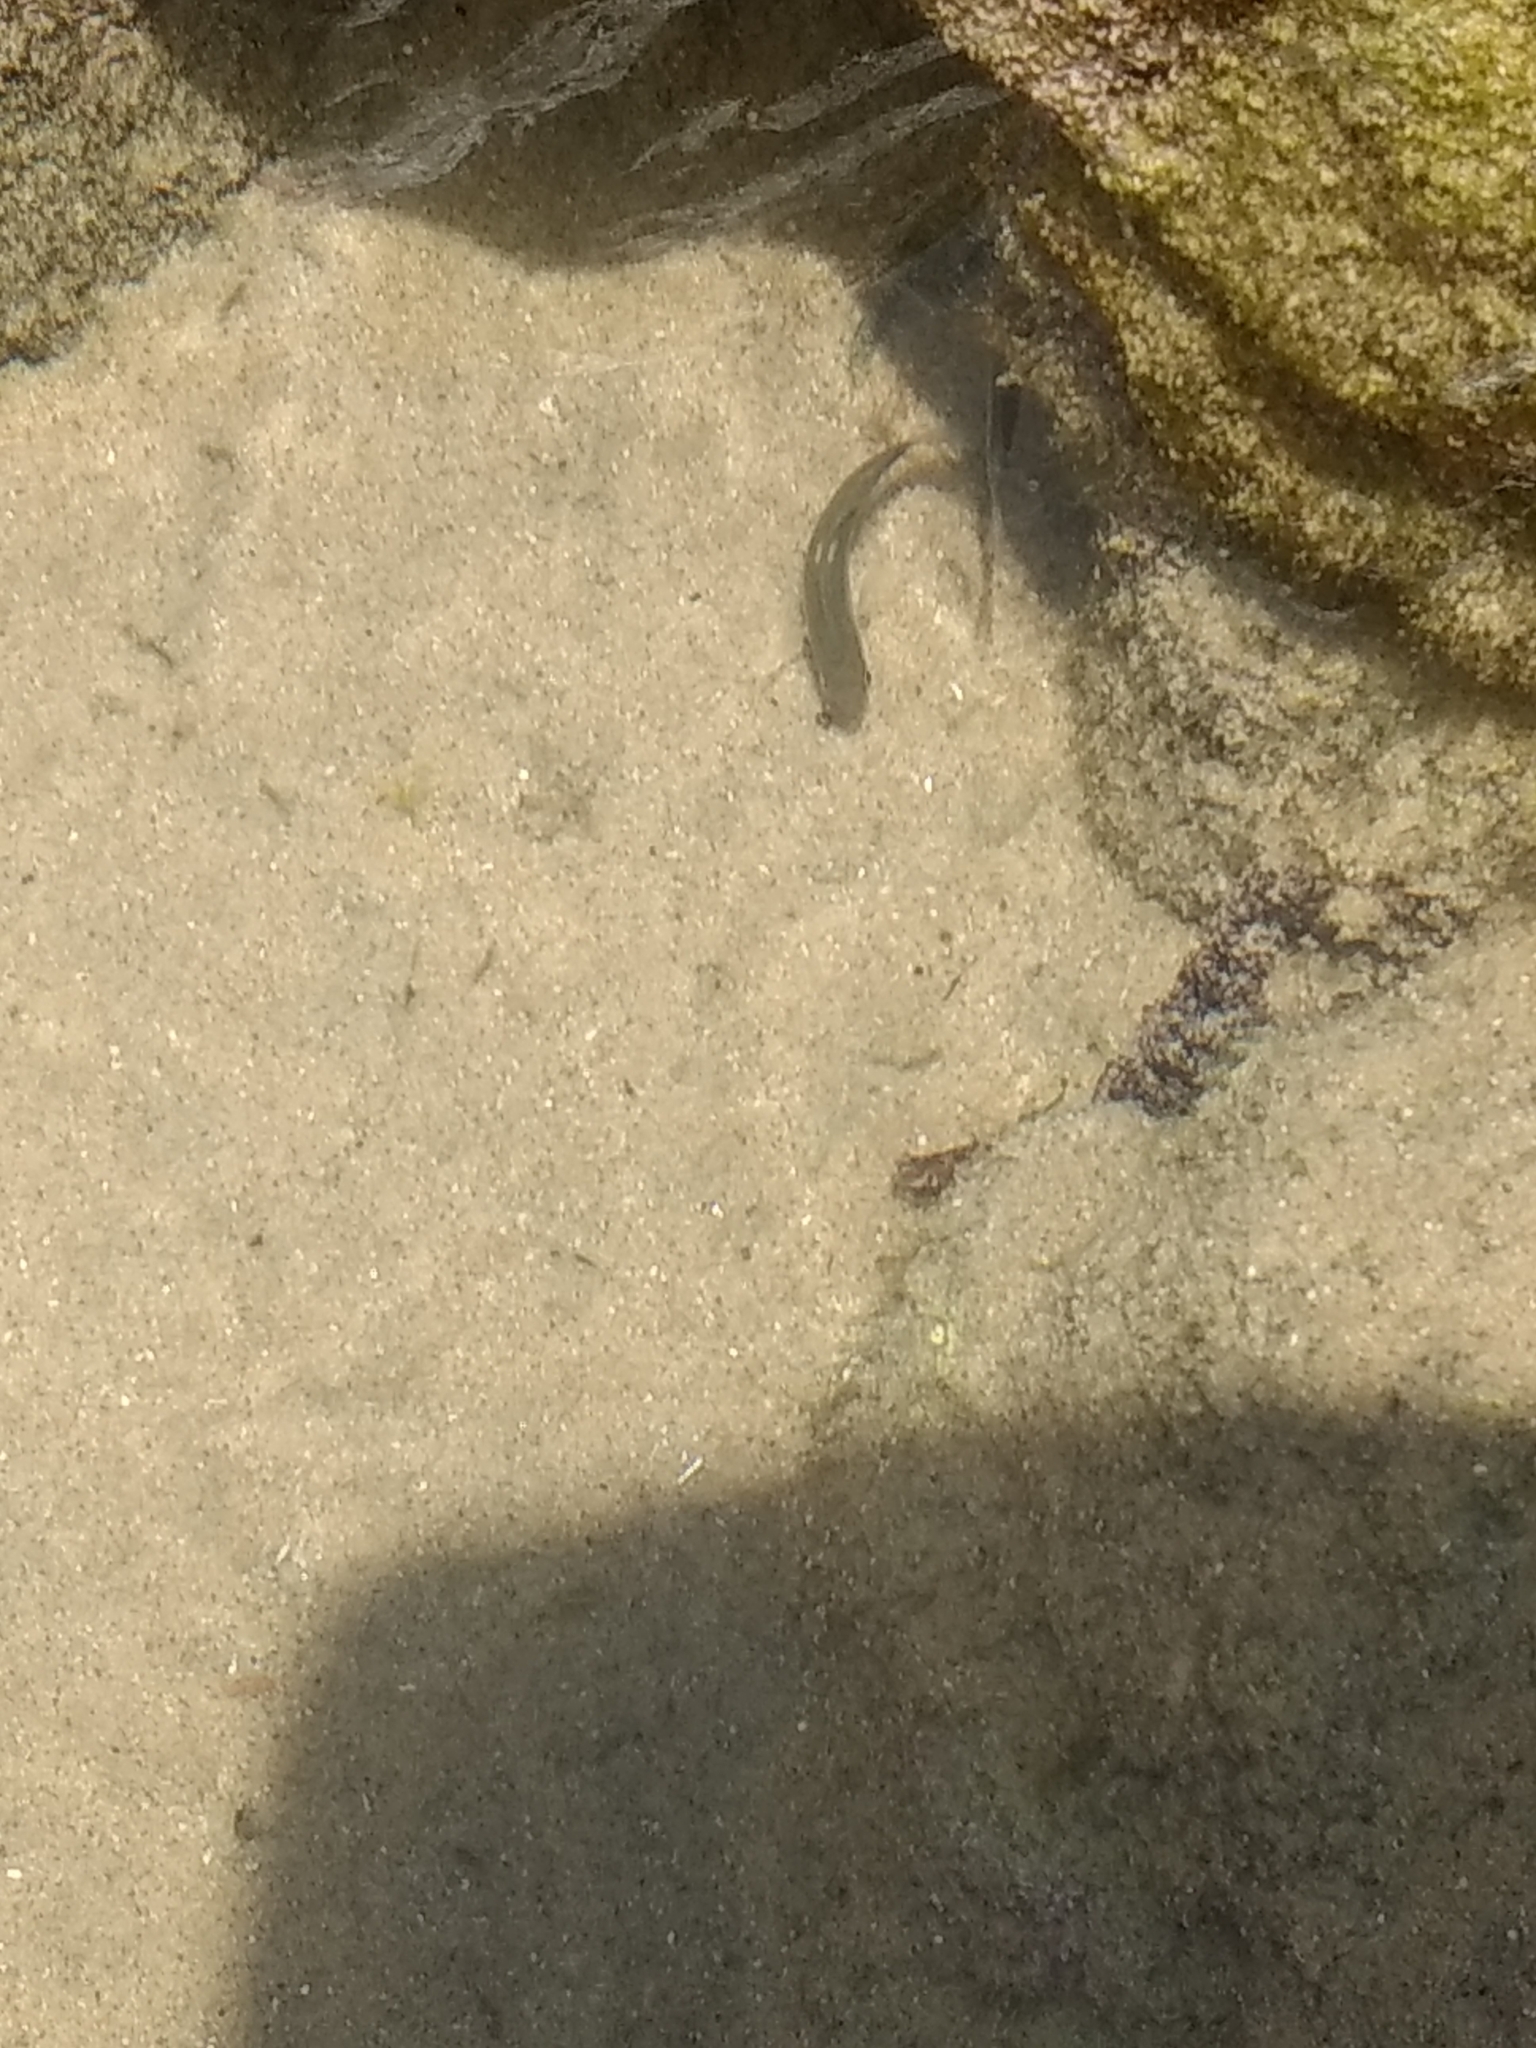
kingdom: Animalia
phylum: Chordata
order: Perciformes
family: Kyphosidae
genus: Girella
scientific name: Girella nigricans
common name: Opaleye
